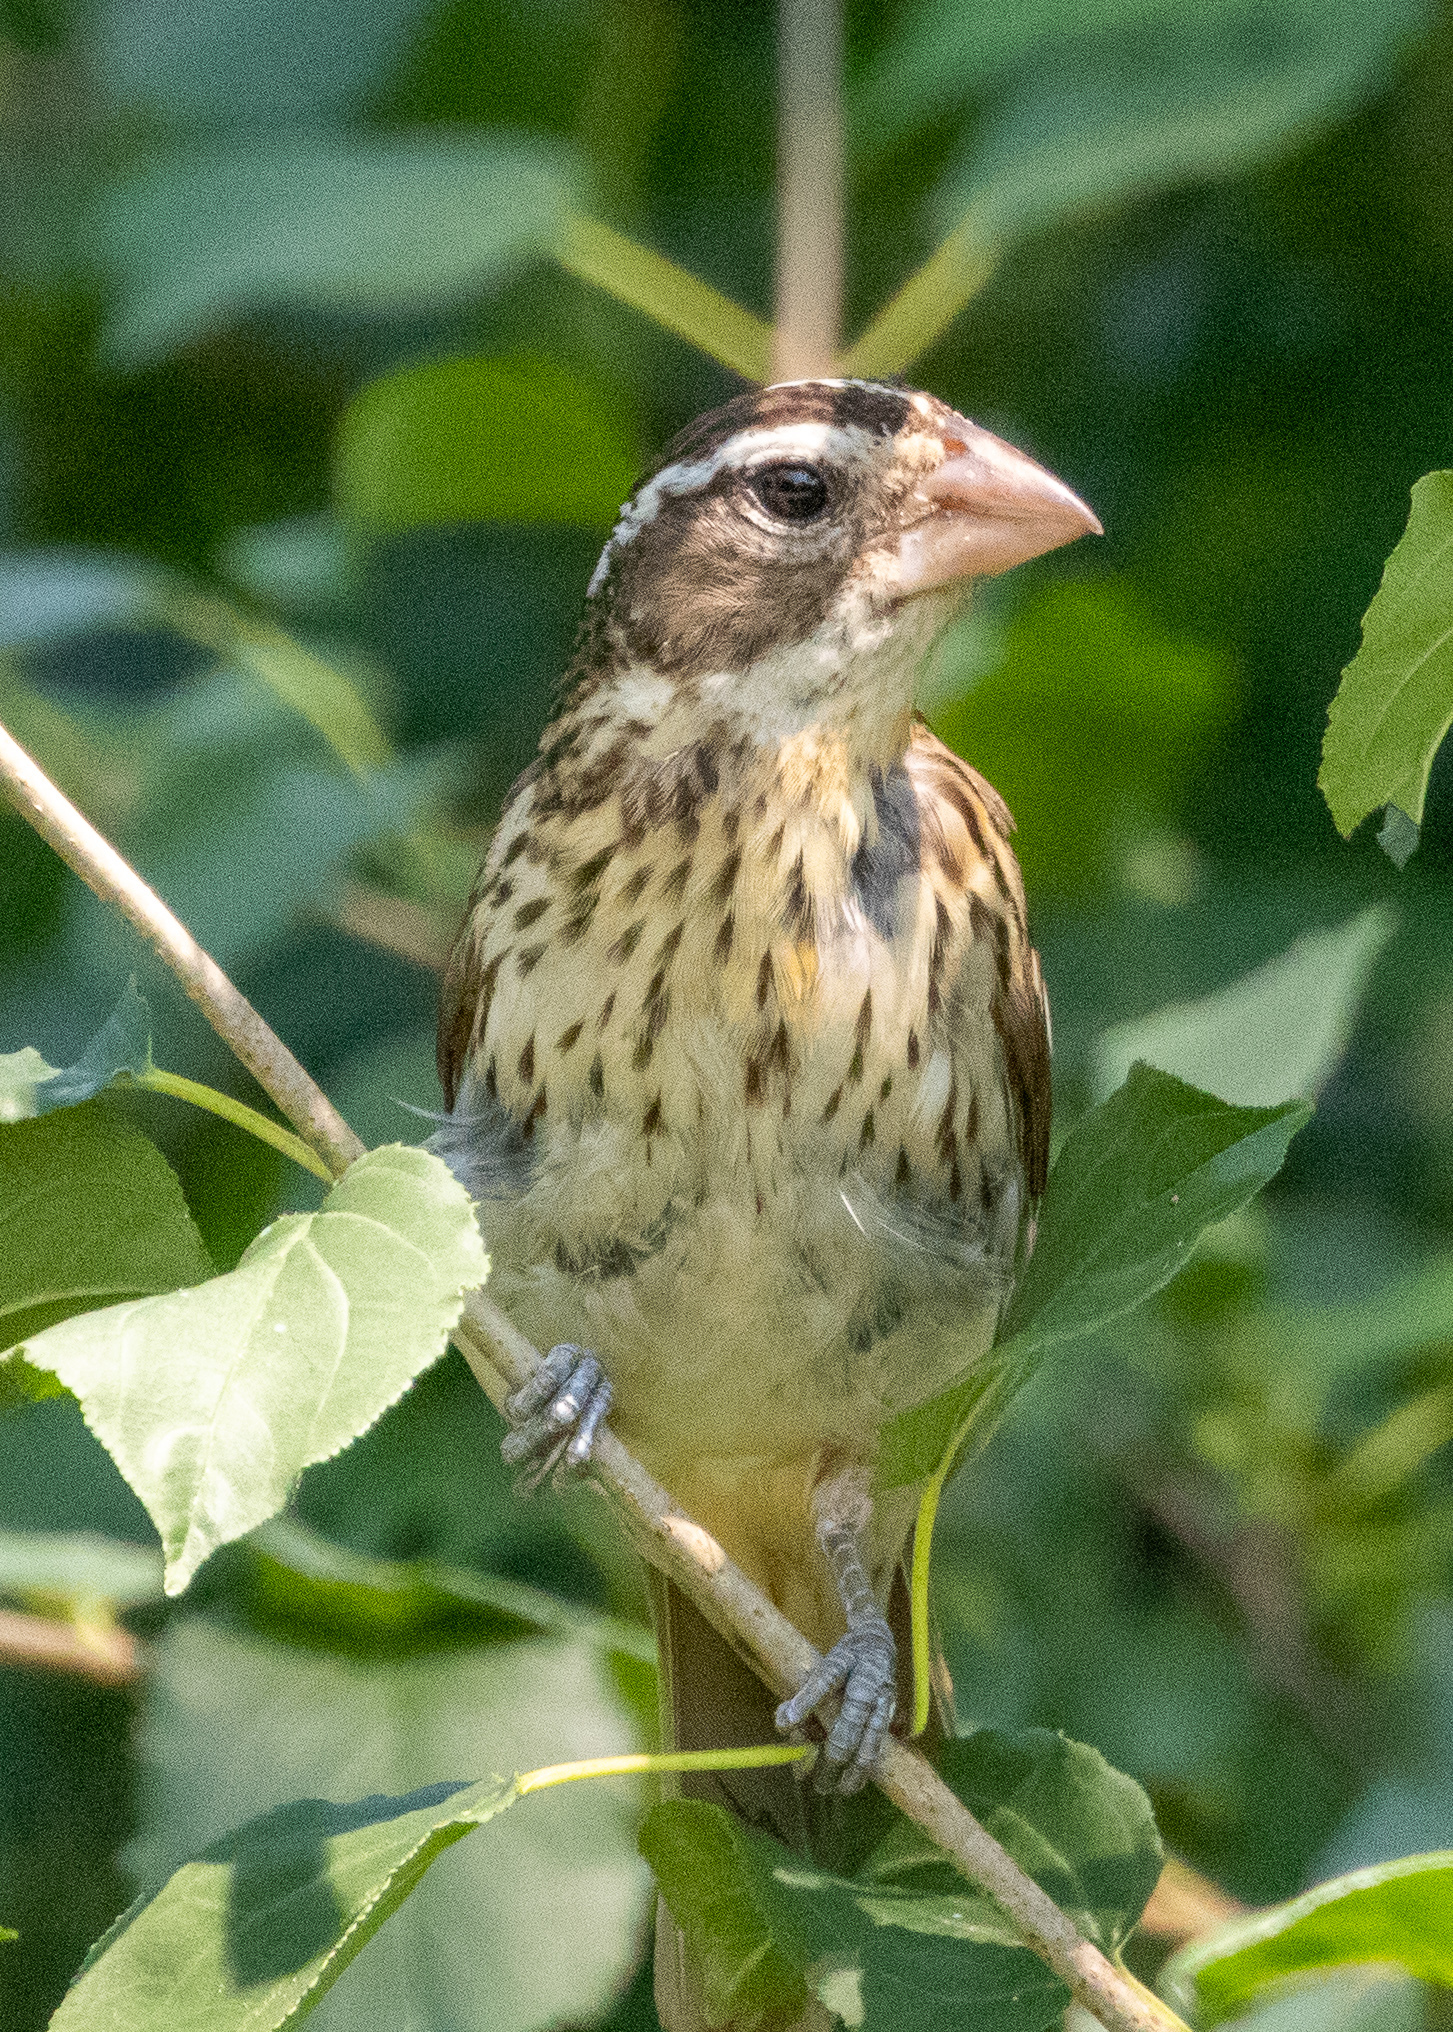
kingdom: Animalia
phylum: Chordata
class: Aves
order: Passeriformes
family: Cardinalidae
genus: Pheucticus
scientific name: Pheucticus ludovicianus
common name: Rose-breasted grosbeak
